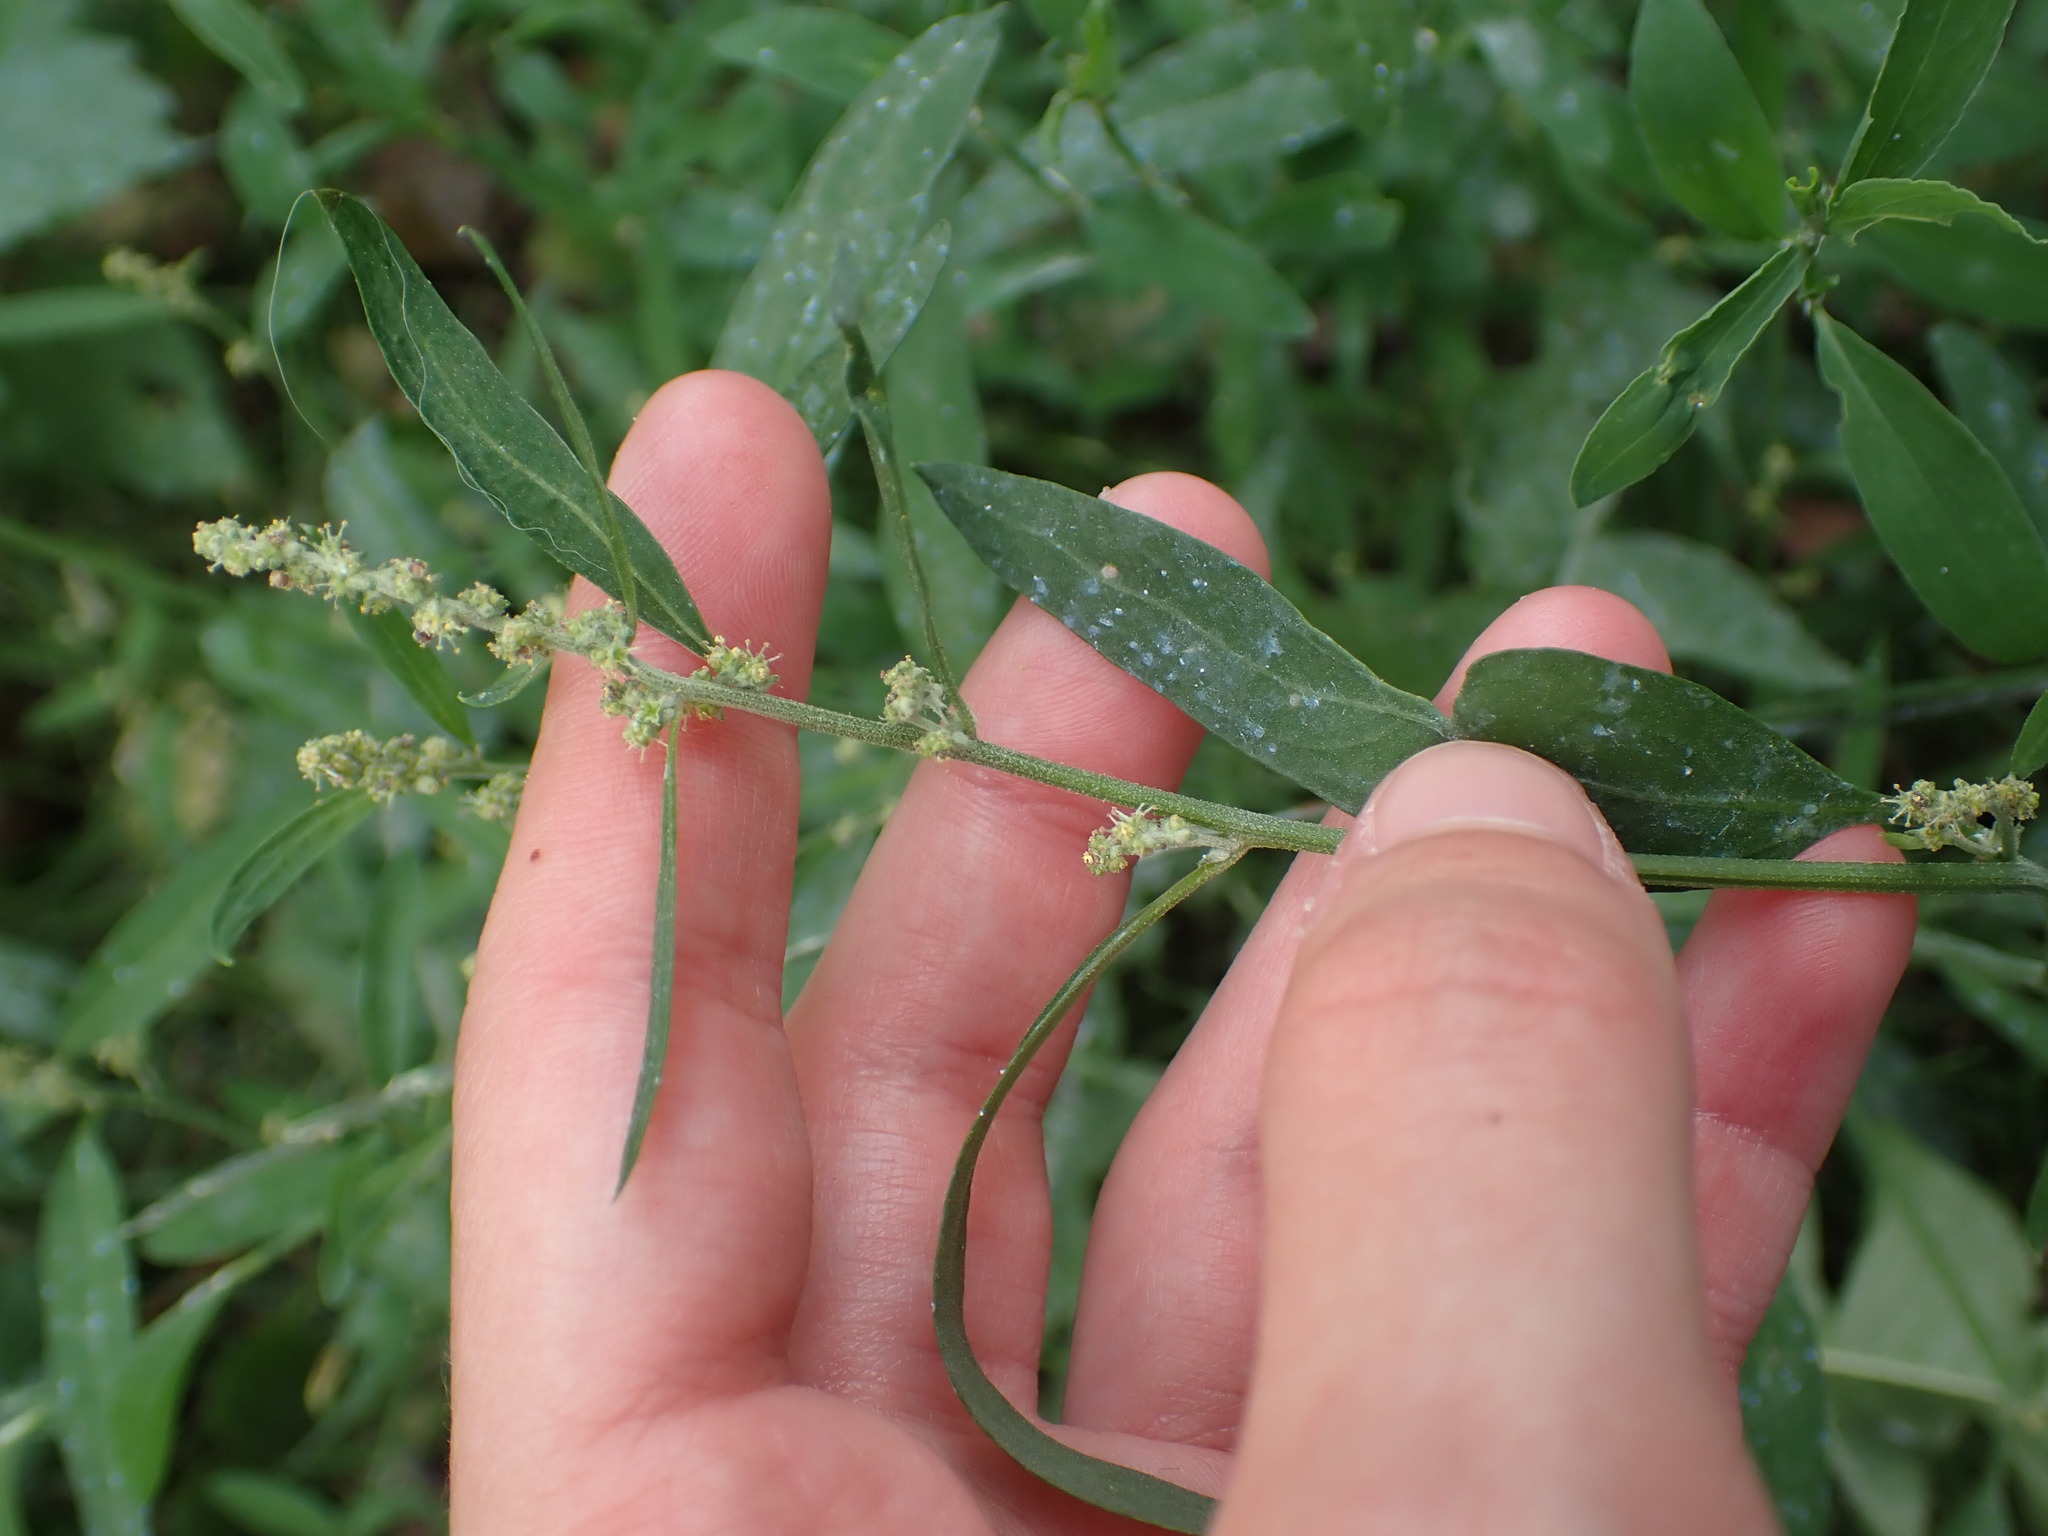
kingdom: Plantae
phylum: Tracheophyta
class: Magnoliopsida
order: Lamiales
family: Lamiaceae
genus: Lamium
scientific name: Lamium album
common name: White dead-nettle
